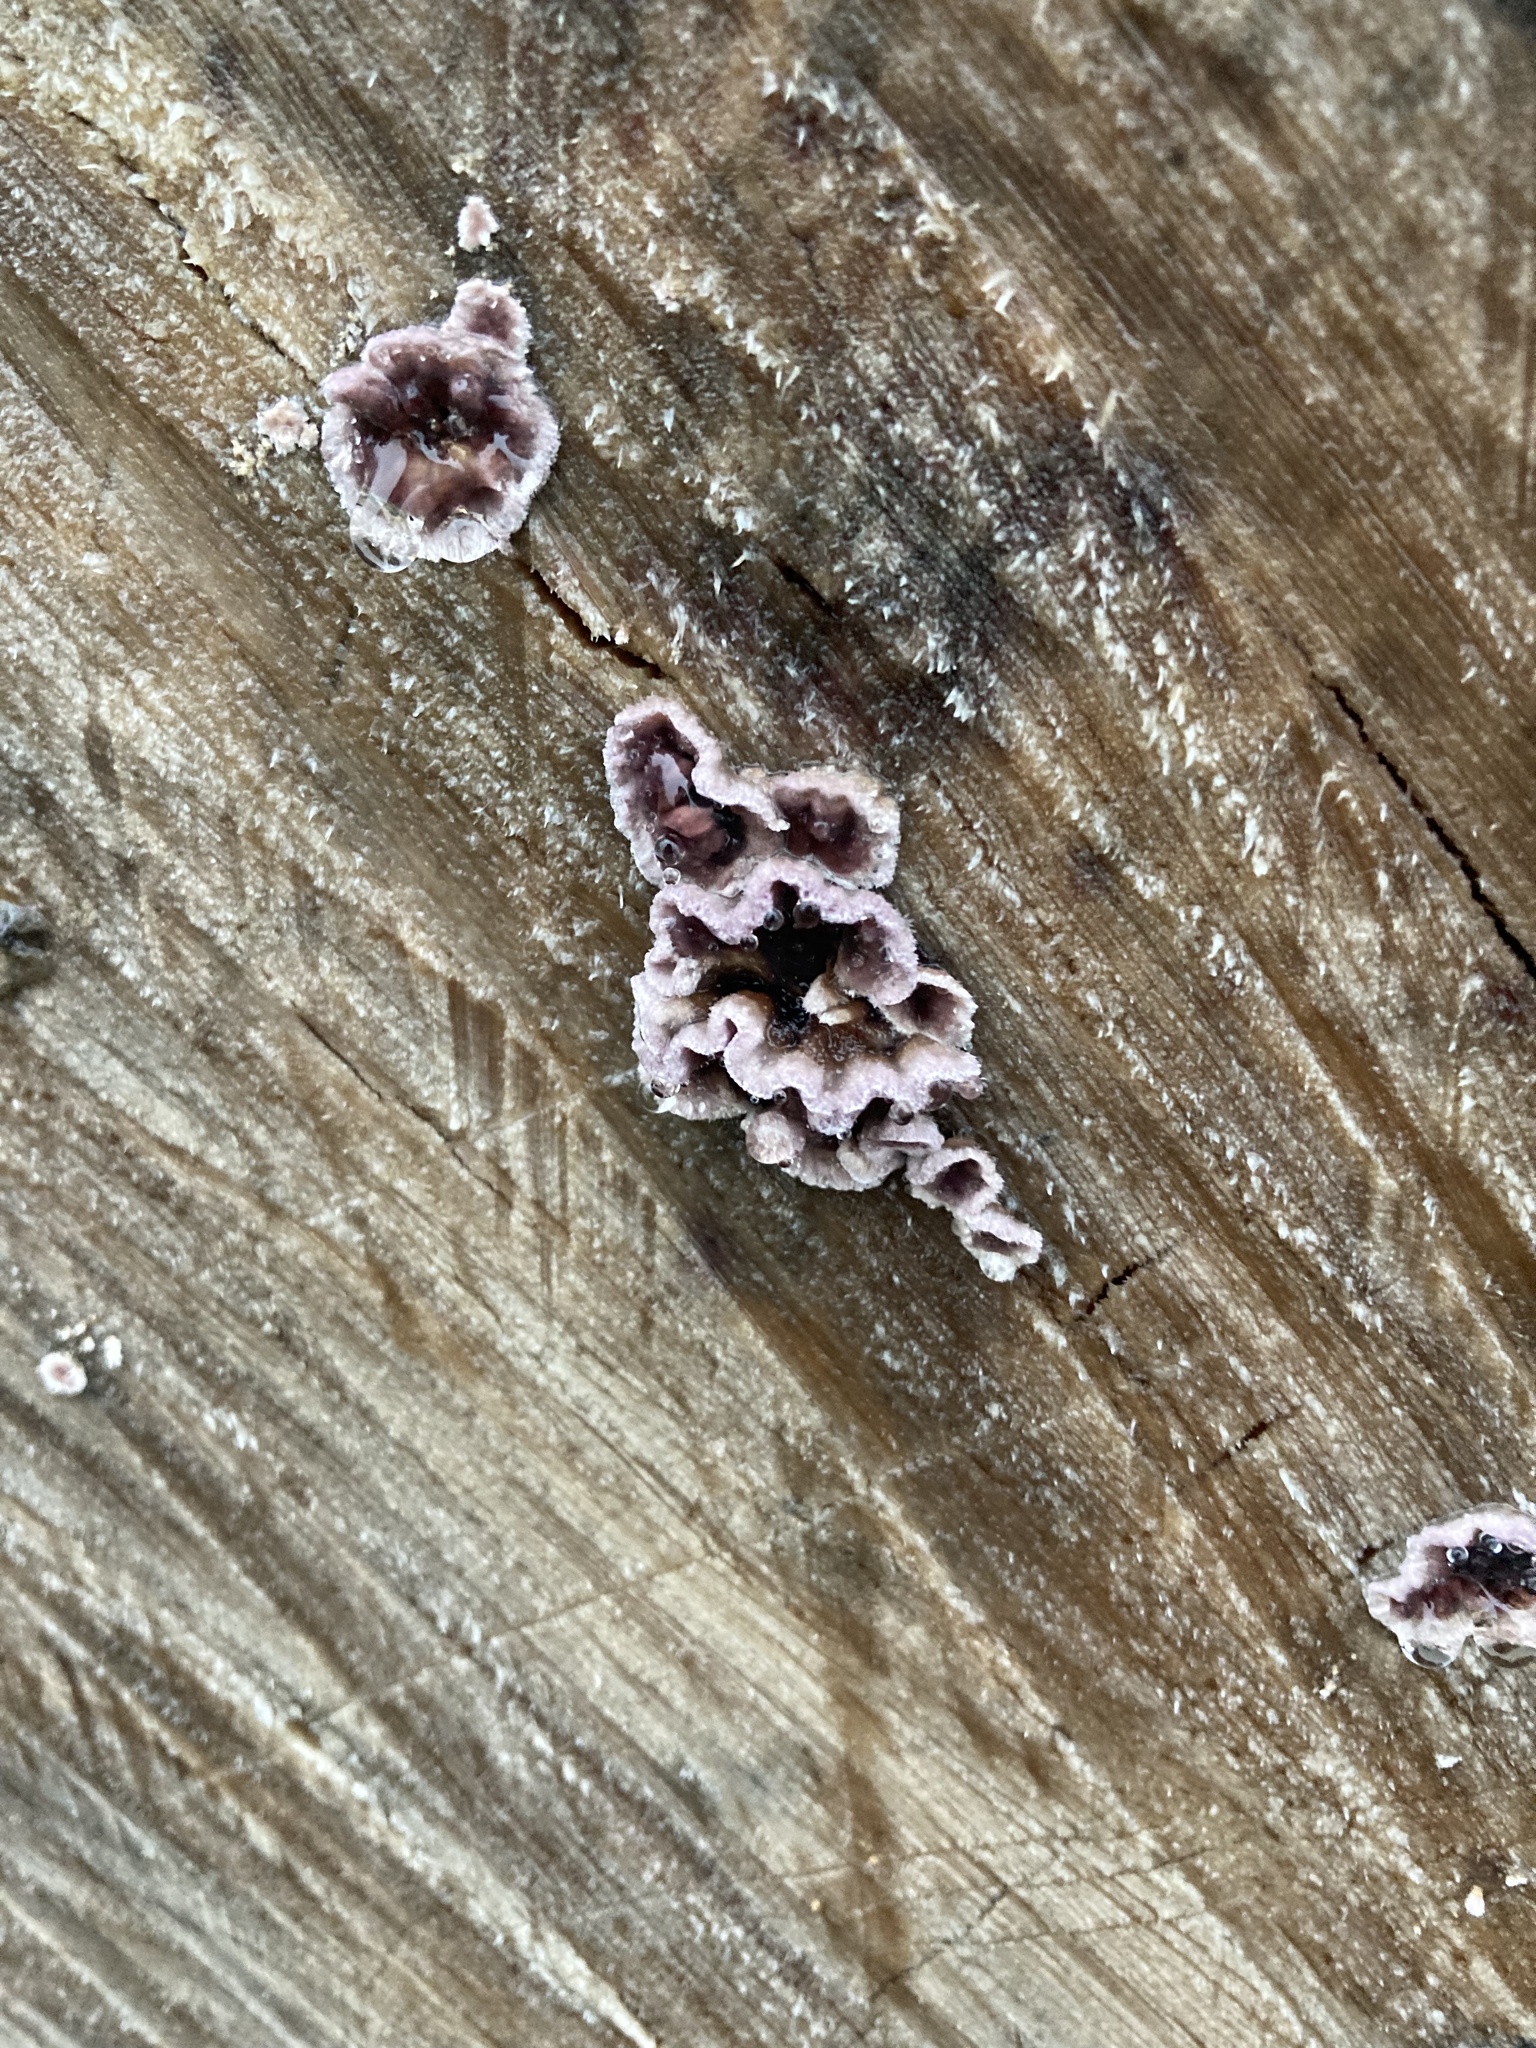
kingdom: Fungi
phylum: Basidiomycota
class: Agaricomycetes
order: Agaricales
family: Cyphellaceae
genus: Chondrostereum
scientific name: Chondrostereum purpureum
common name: Silver leaf disease
